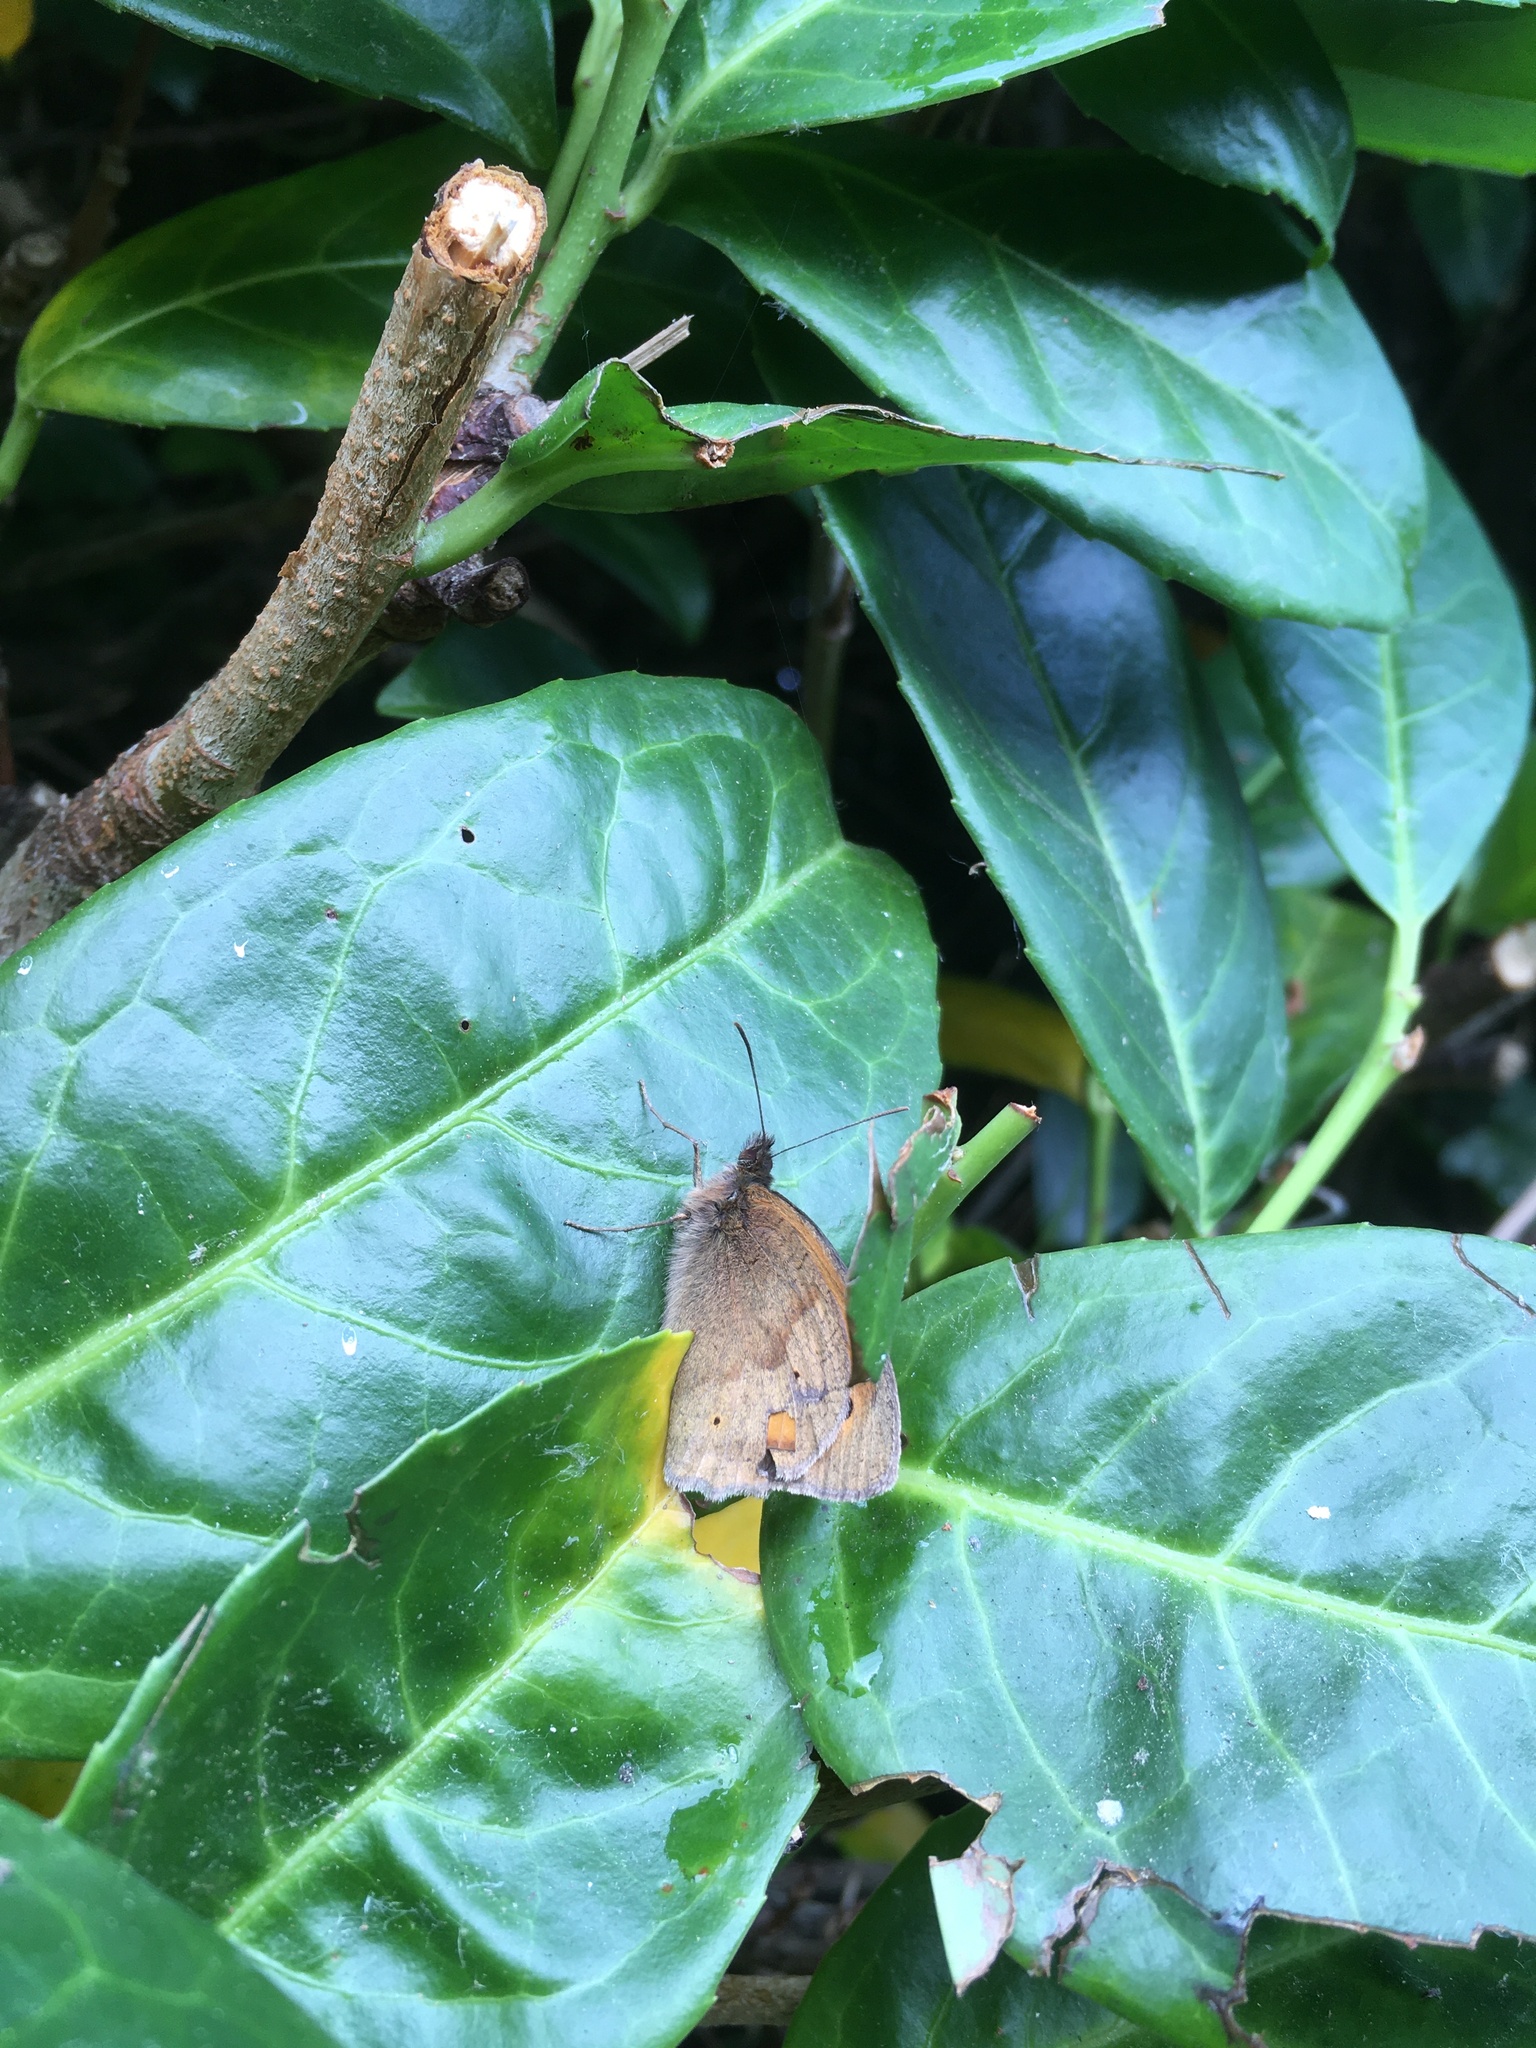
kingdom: Animalia
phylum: Arthropoda
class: Insecta
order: Lepidoptera
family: Nymphalidae
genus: Maniola
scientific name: Maniola jurtina
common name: Meadow brown
